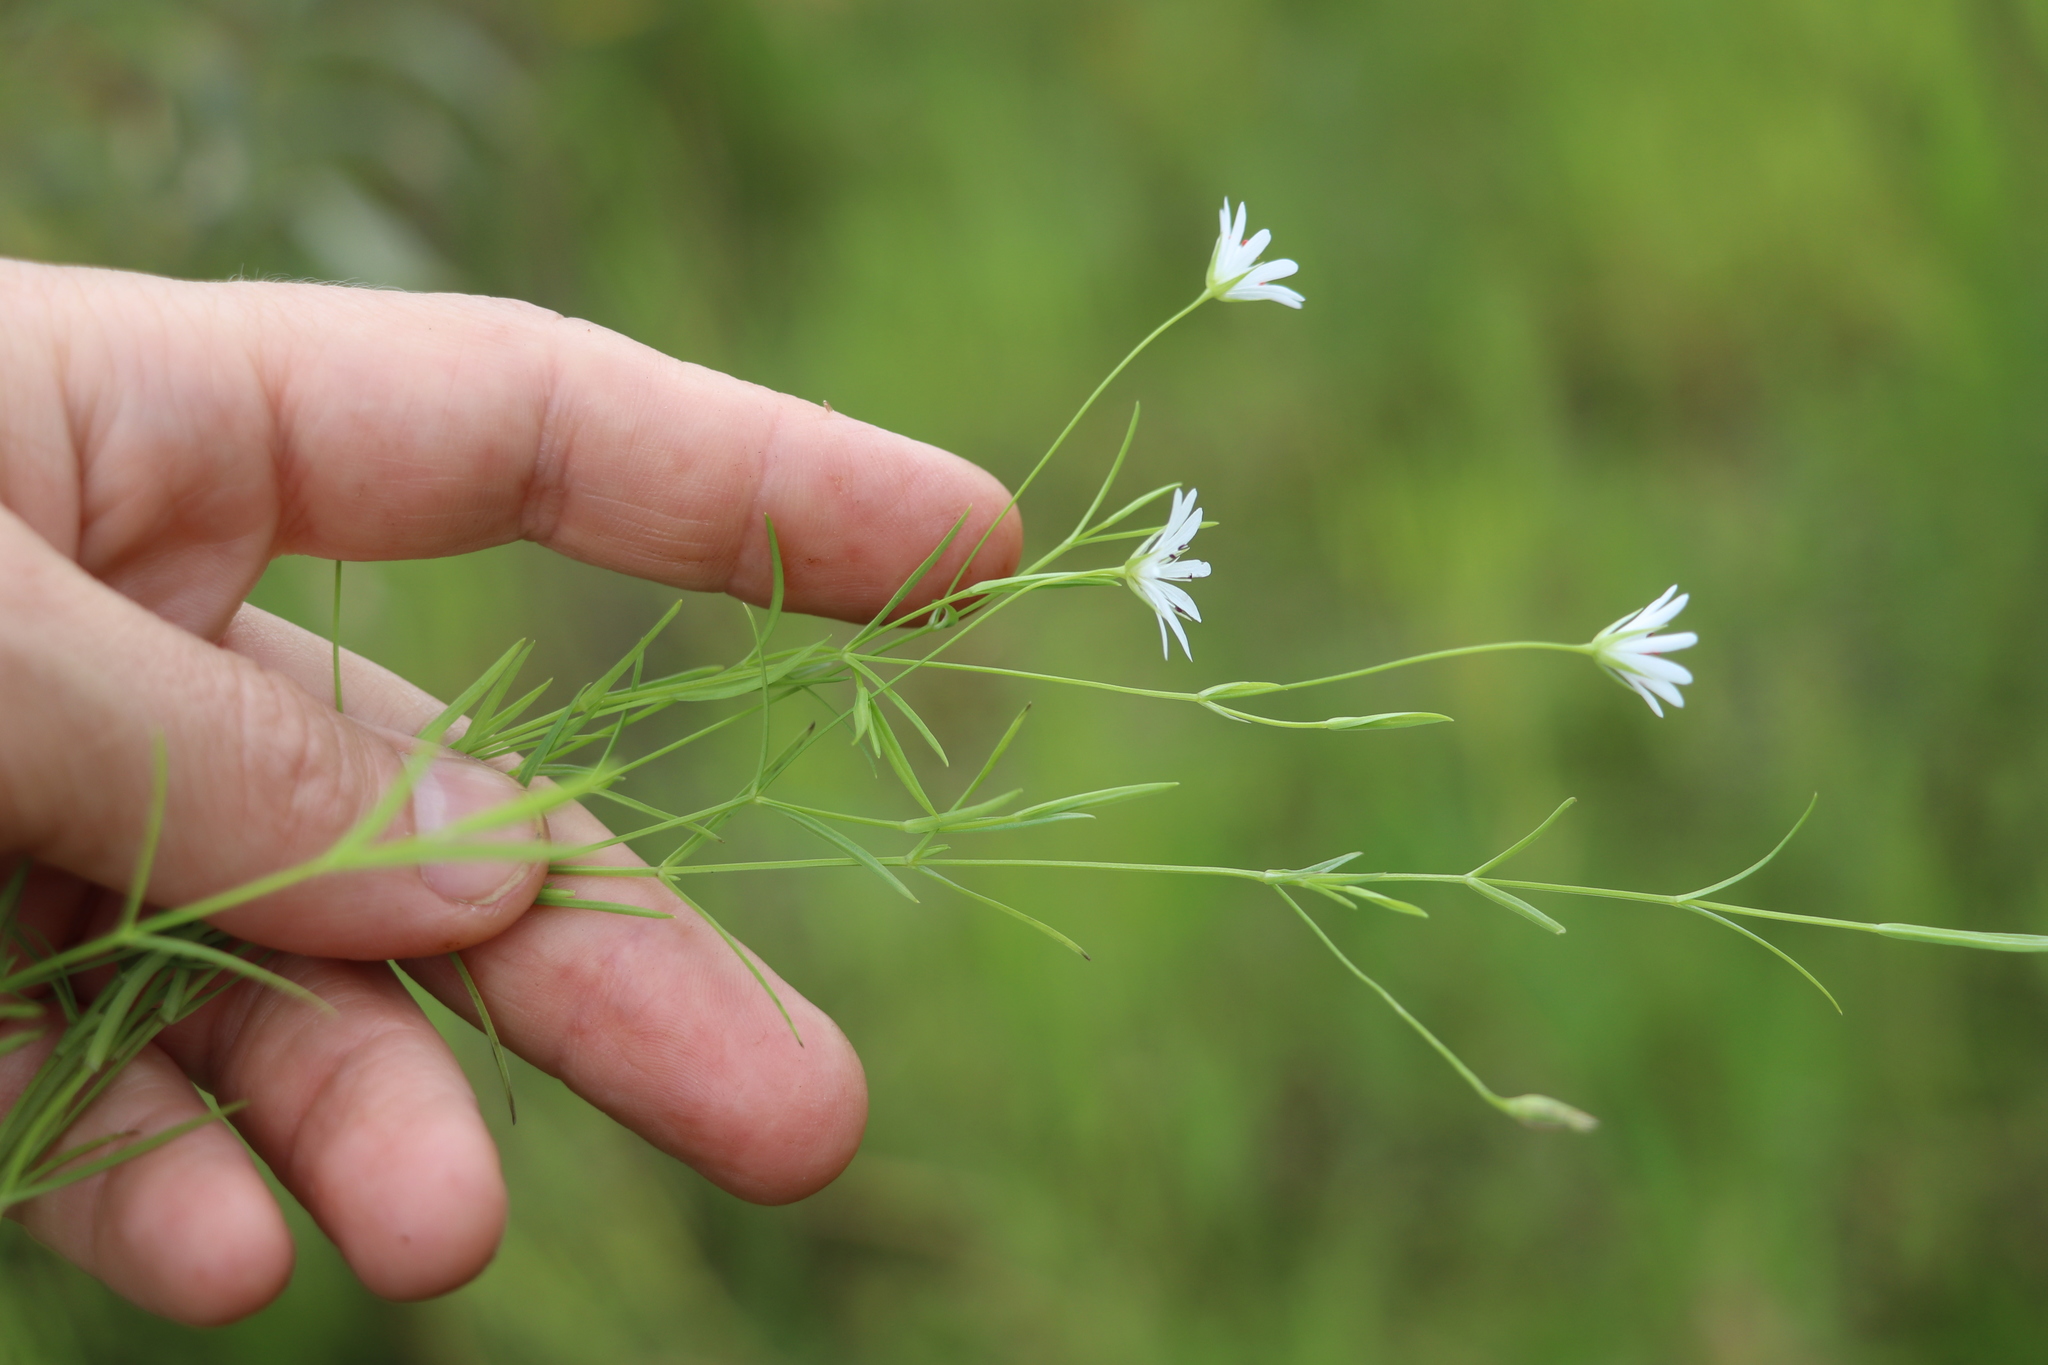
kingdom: Plantae
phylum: Tracheophyta
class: Magnoliopsida
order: Caryophyllales
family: Caryophyllaceae
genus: Stellaria
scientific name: Stellaria palustris
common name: Marsh stitchwort
